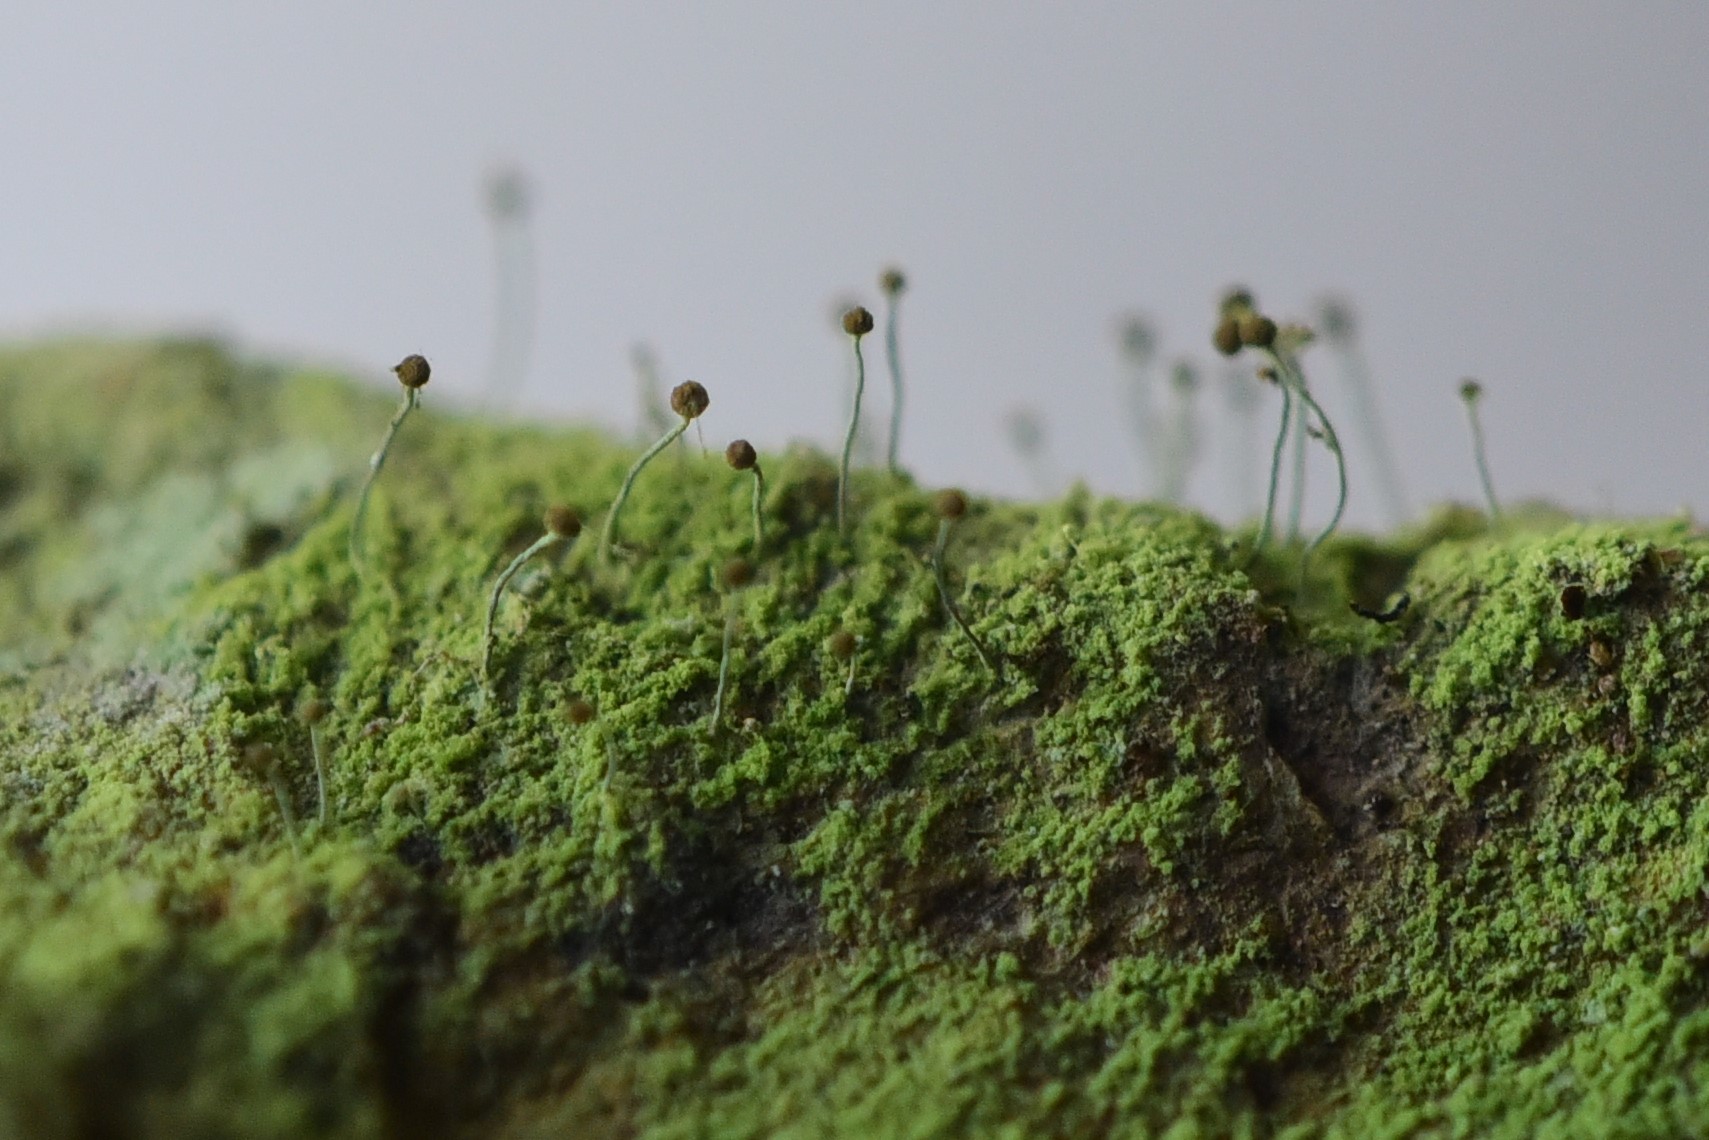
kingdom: Fungi
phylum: Ascomycota
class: Coniocybomycetes
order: Coniocybales
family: Coniocybaceae
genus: Chaenotheca
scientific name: Chaenotheca furfuracea
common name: Sulphur stubble lichen
